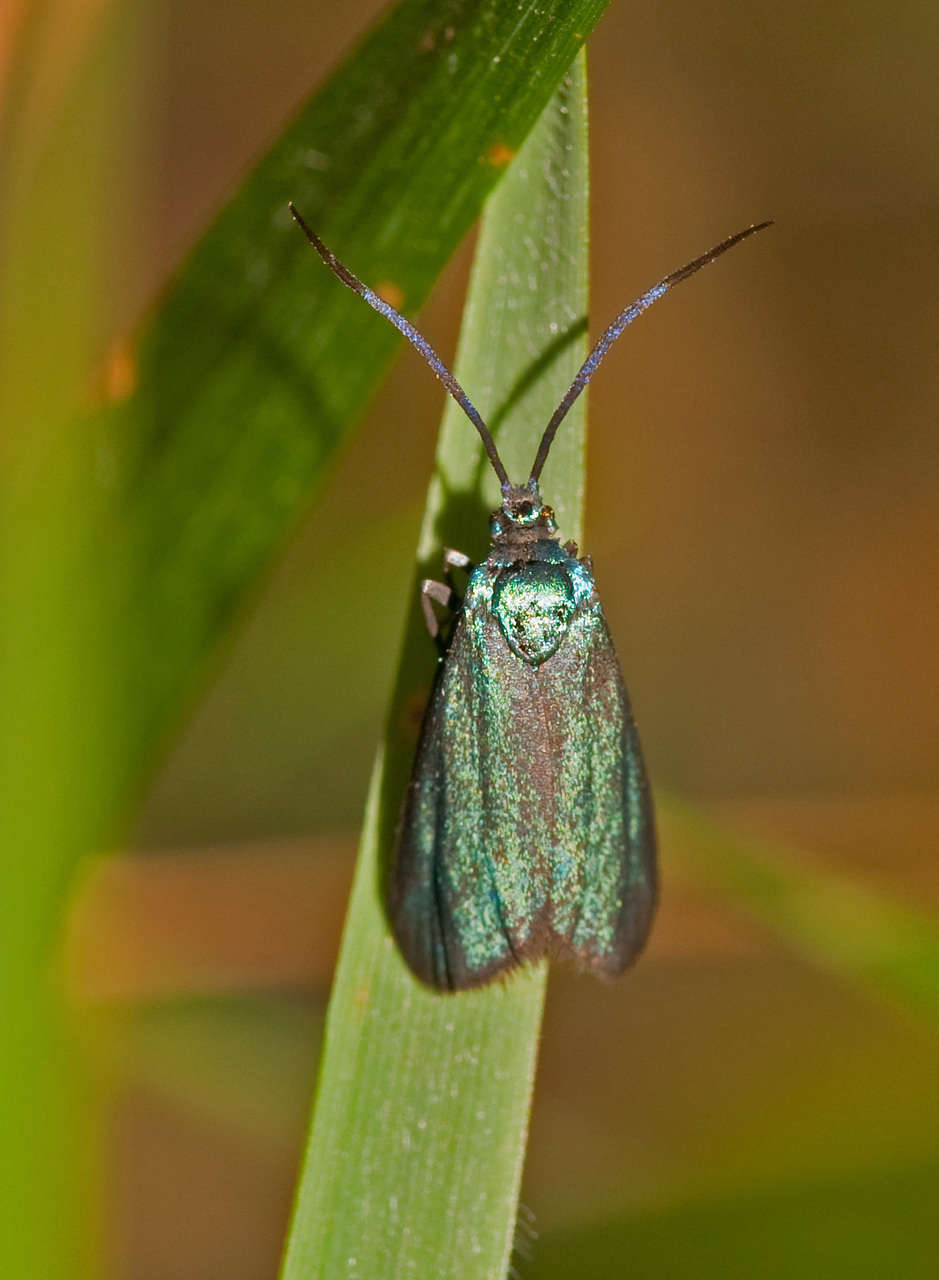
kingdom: Animalia
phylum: Arthropoda
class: Insecta
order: Lepidoptera
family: Zygaenidae
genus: Pollanisus
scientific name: Pollanisus viridipulverulenta
